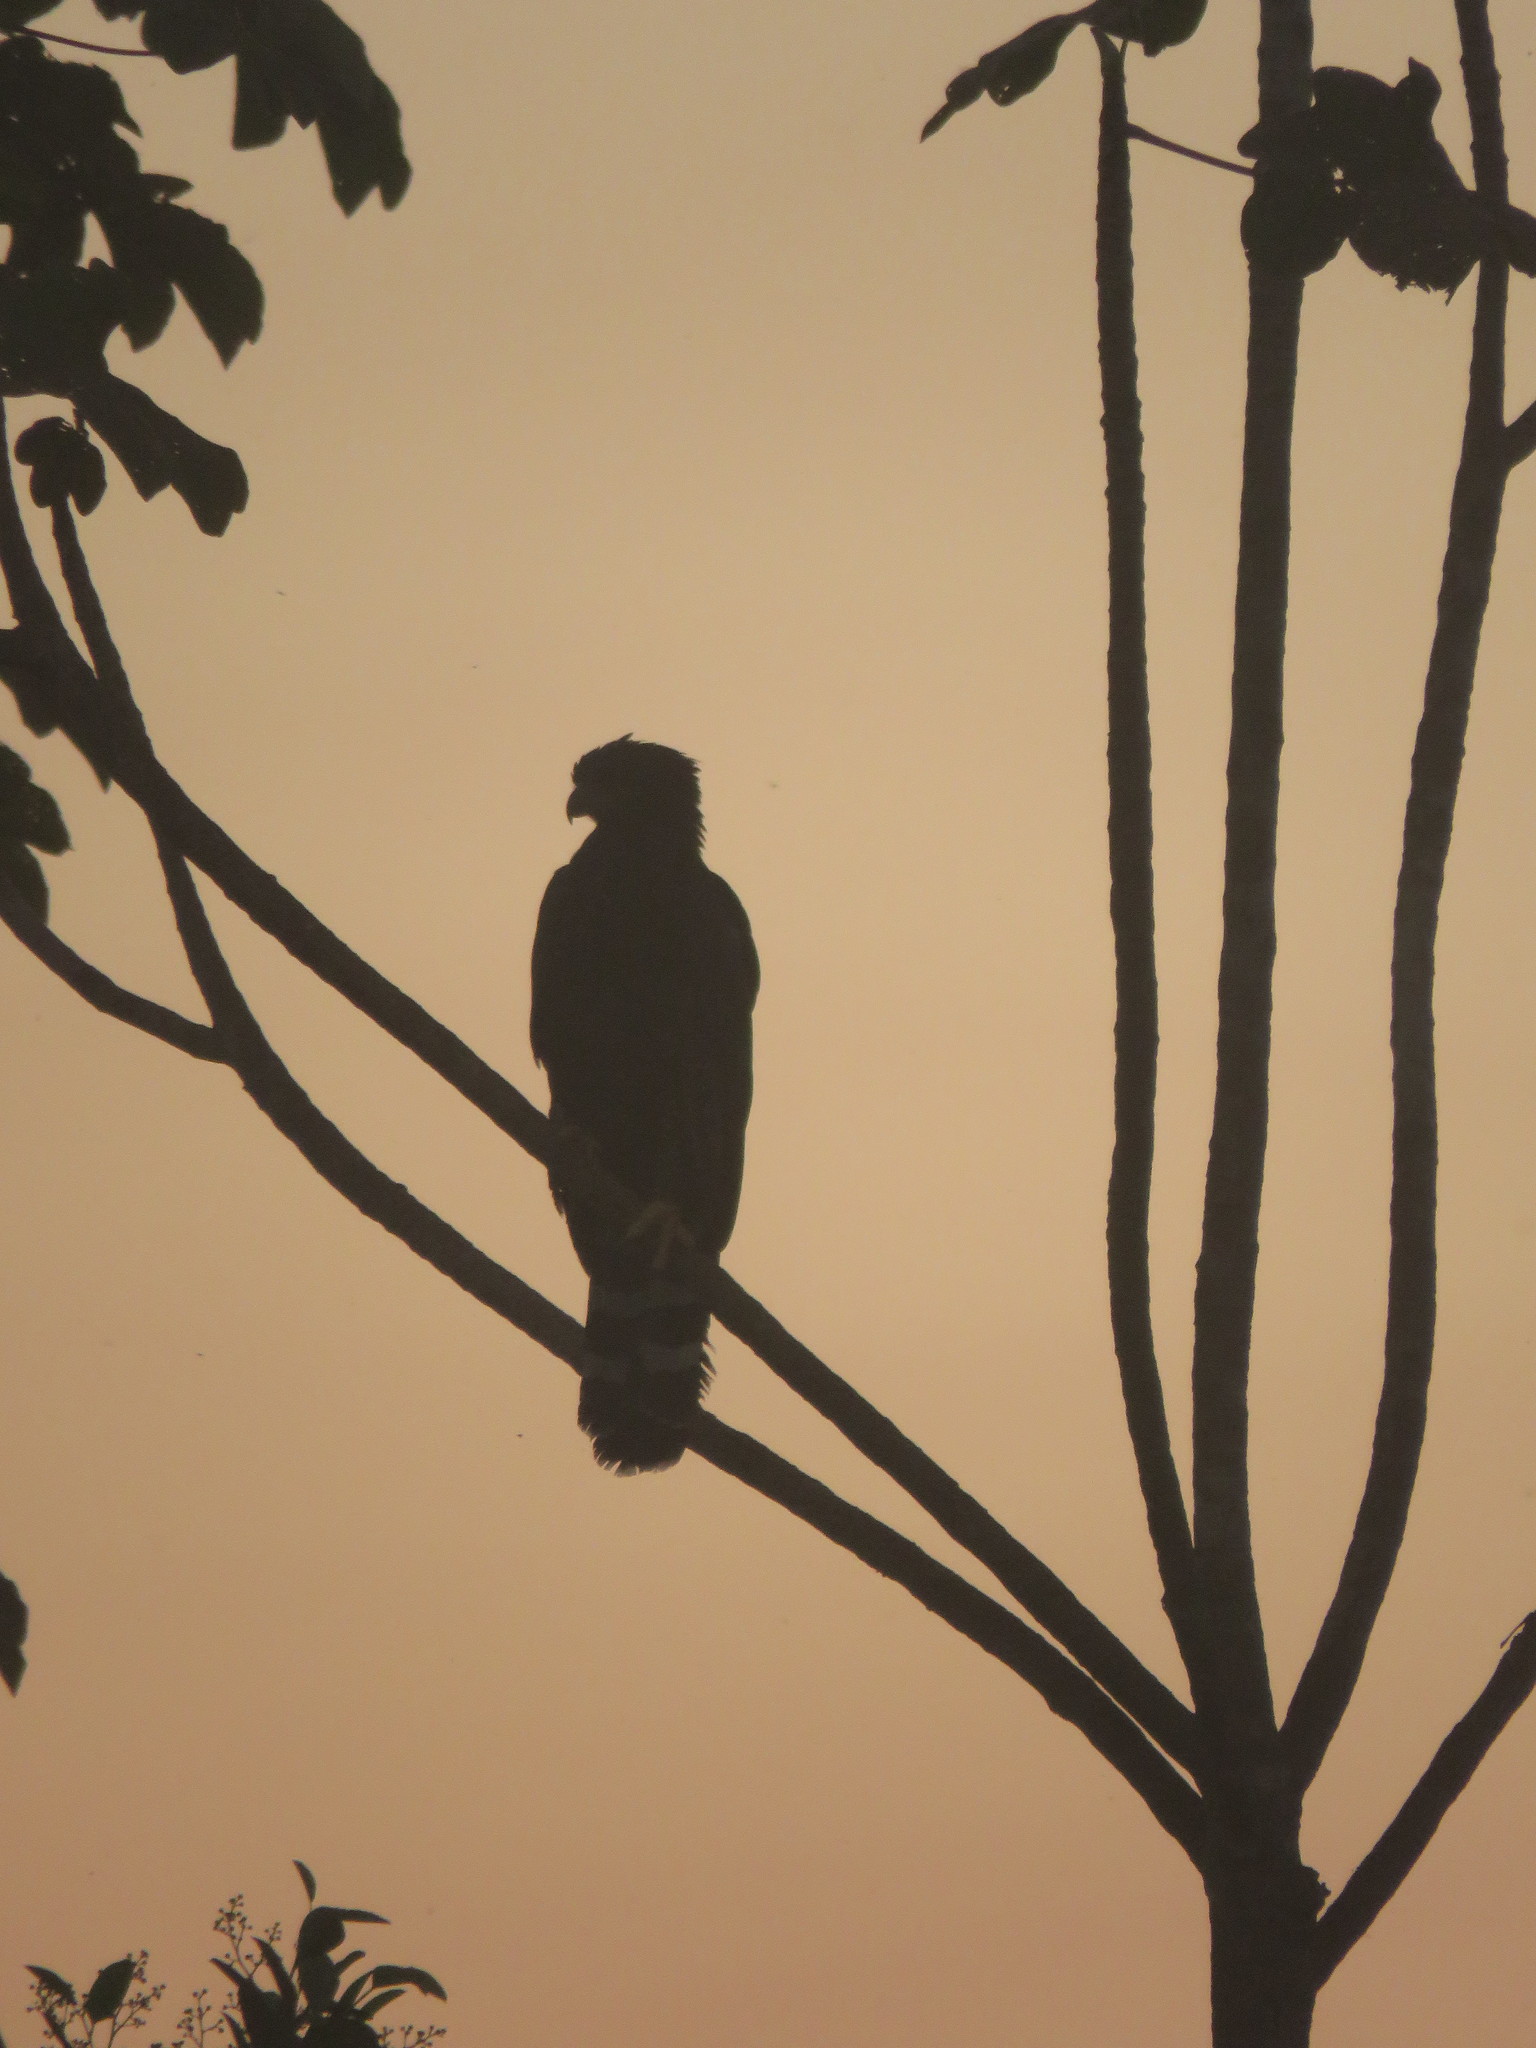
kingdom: Animalia
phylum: Chordata
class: Aves
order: Accipitriformes
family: Accipitridae
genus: Spizaetus
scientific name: Spizaetus tyrannus
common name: Black hawk-eagle
